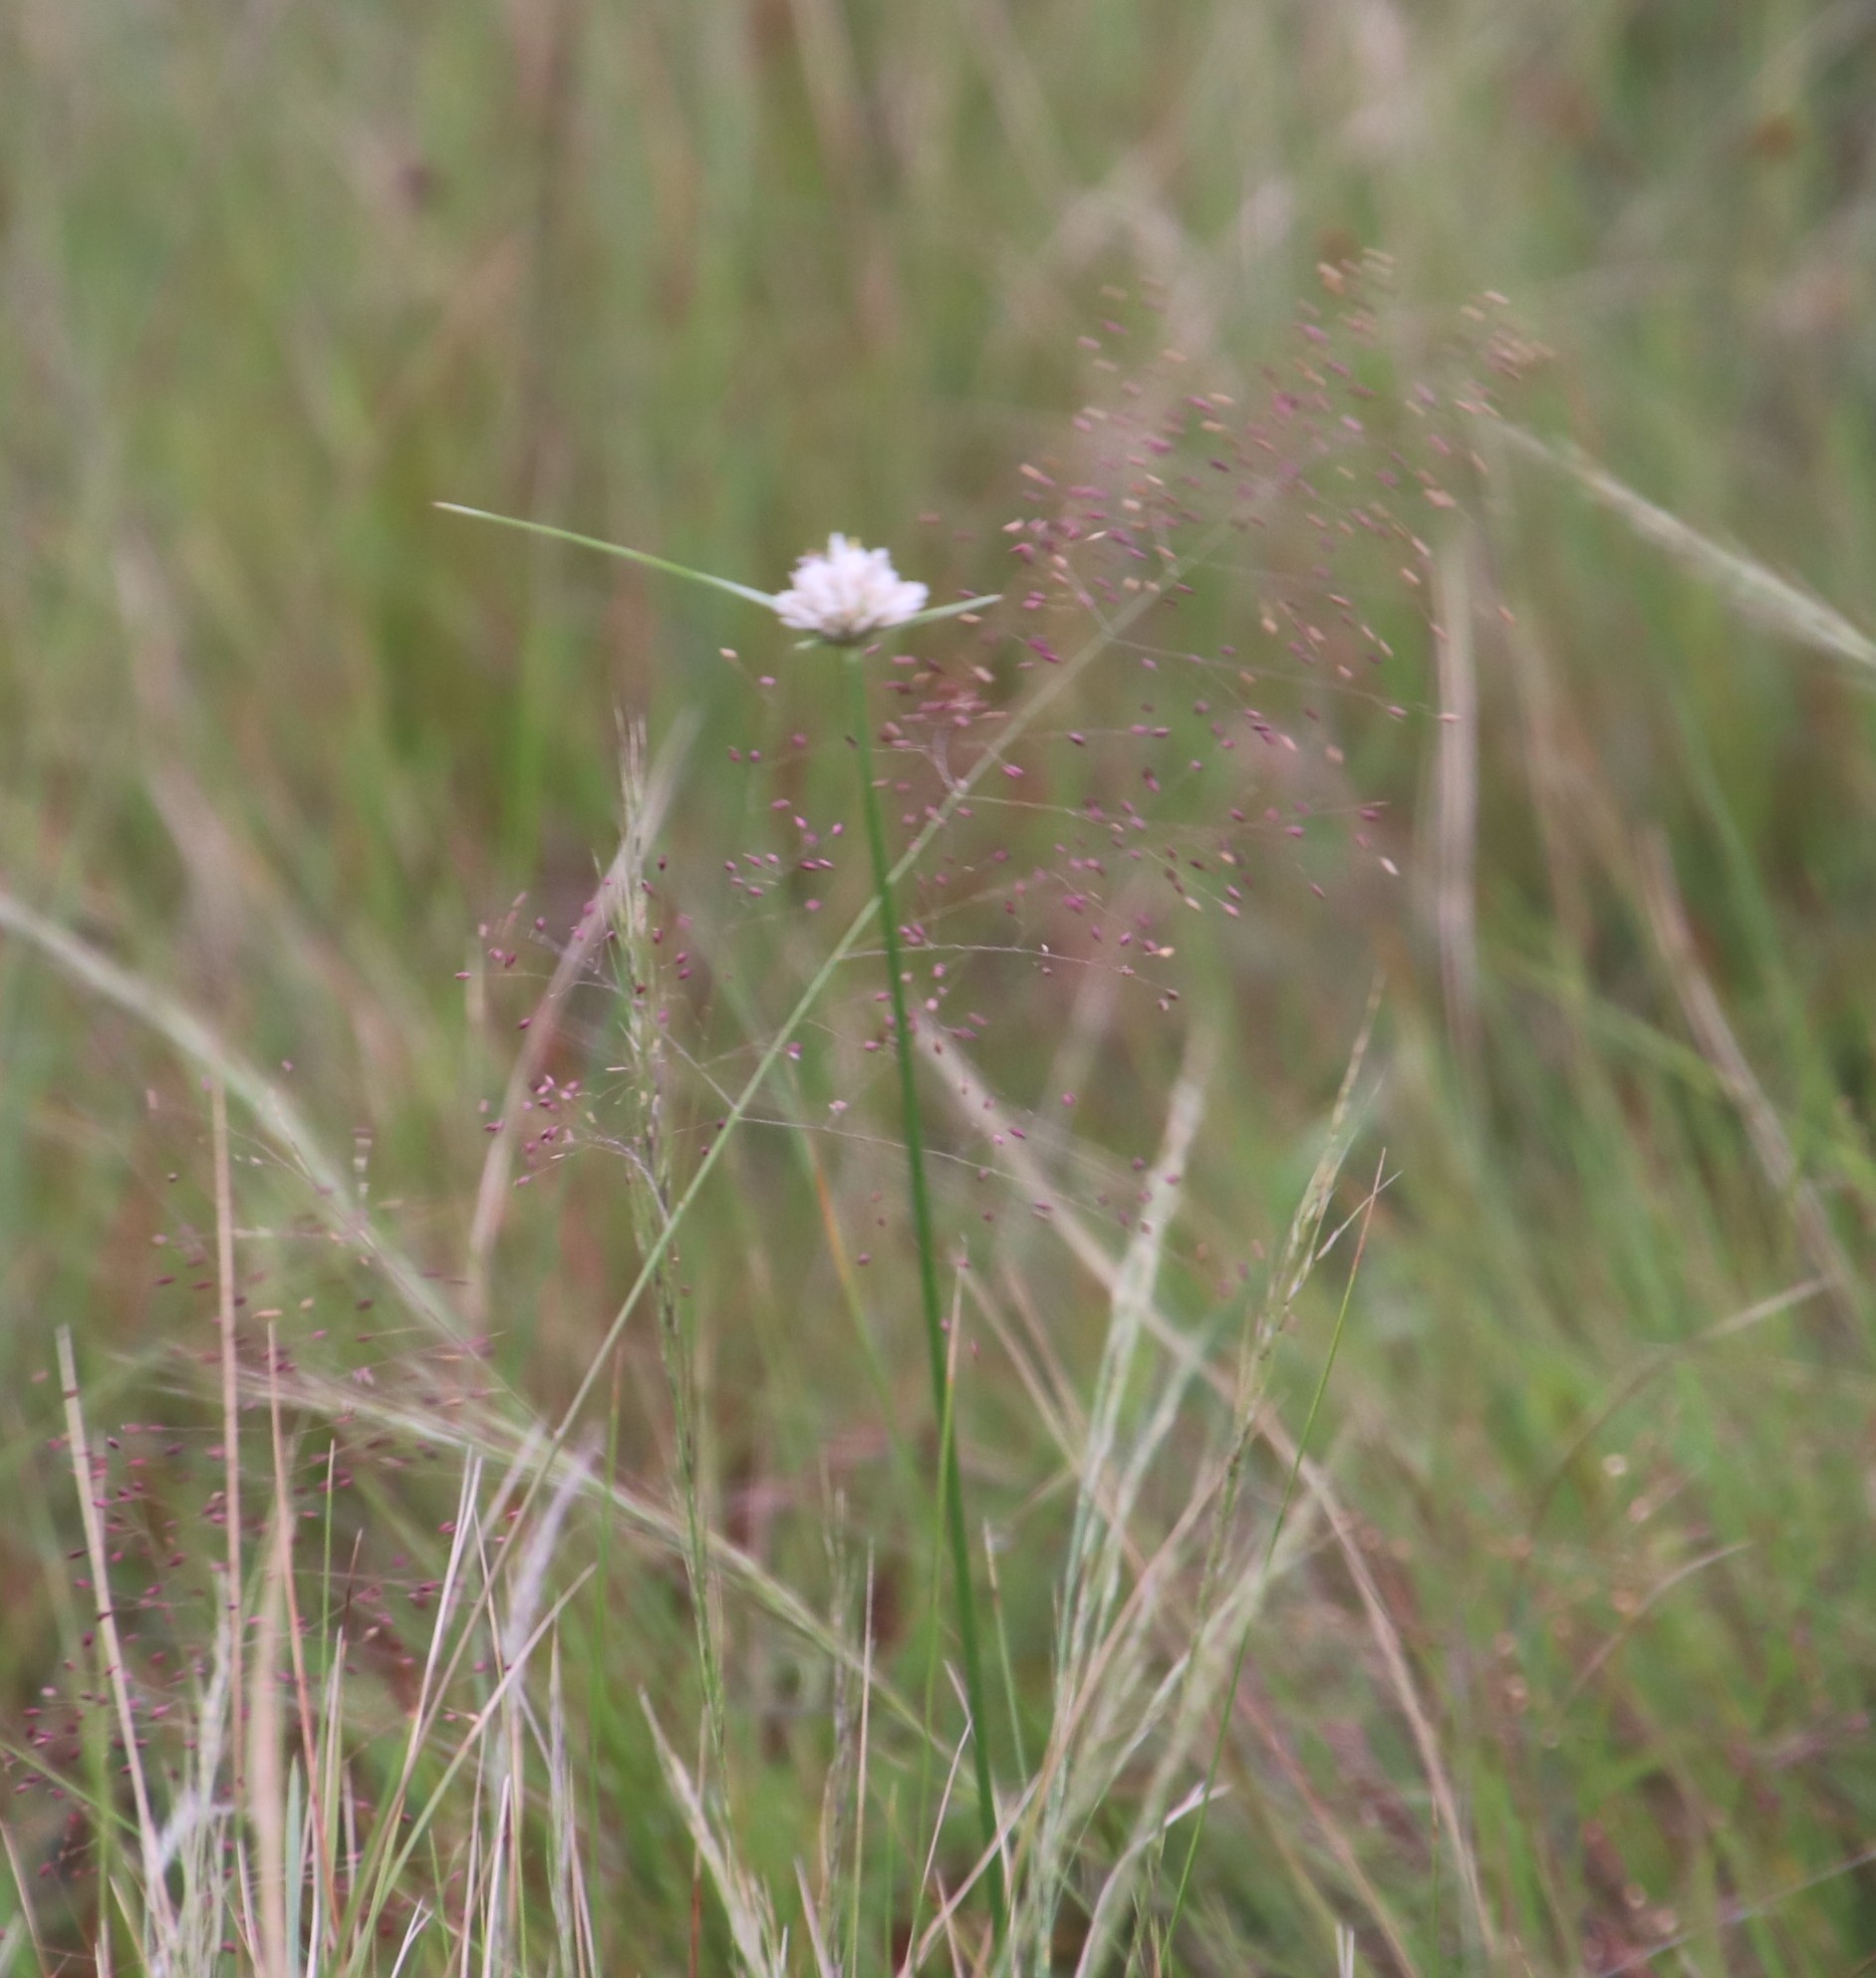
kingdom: Plantae
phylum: Tracheophyta
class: Liliopsida
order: Poales
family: Cyperaceae
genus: Cyperus
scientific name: Cyperus niveus
